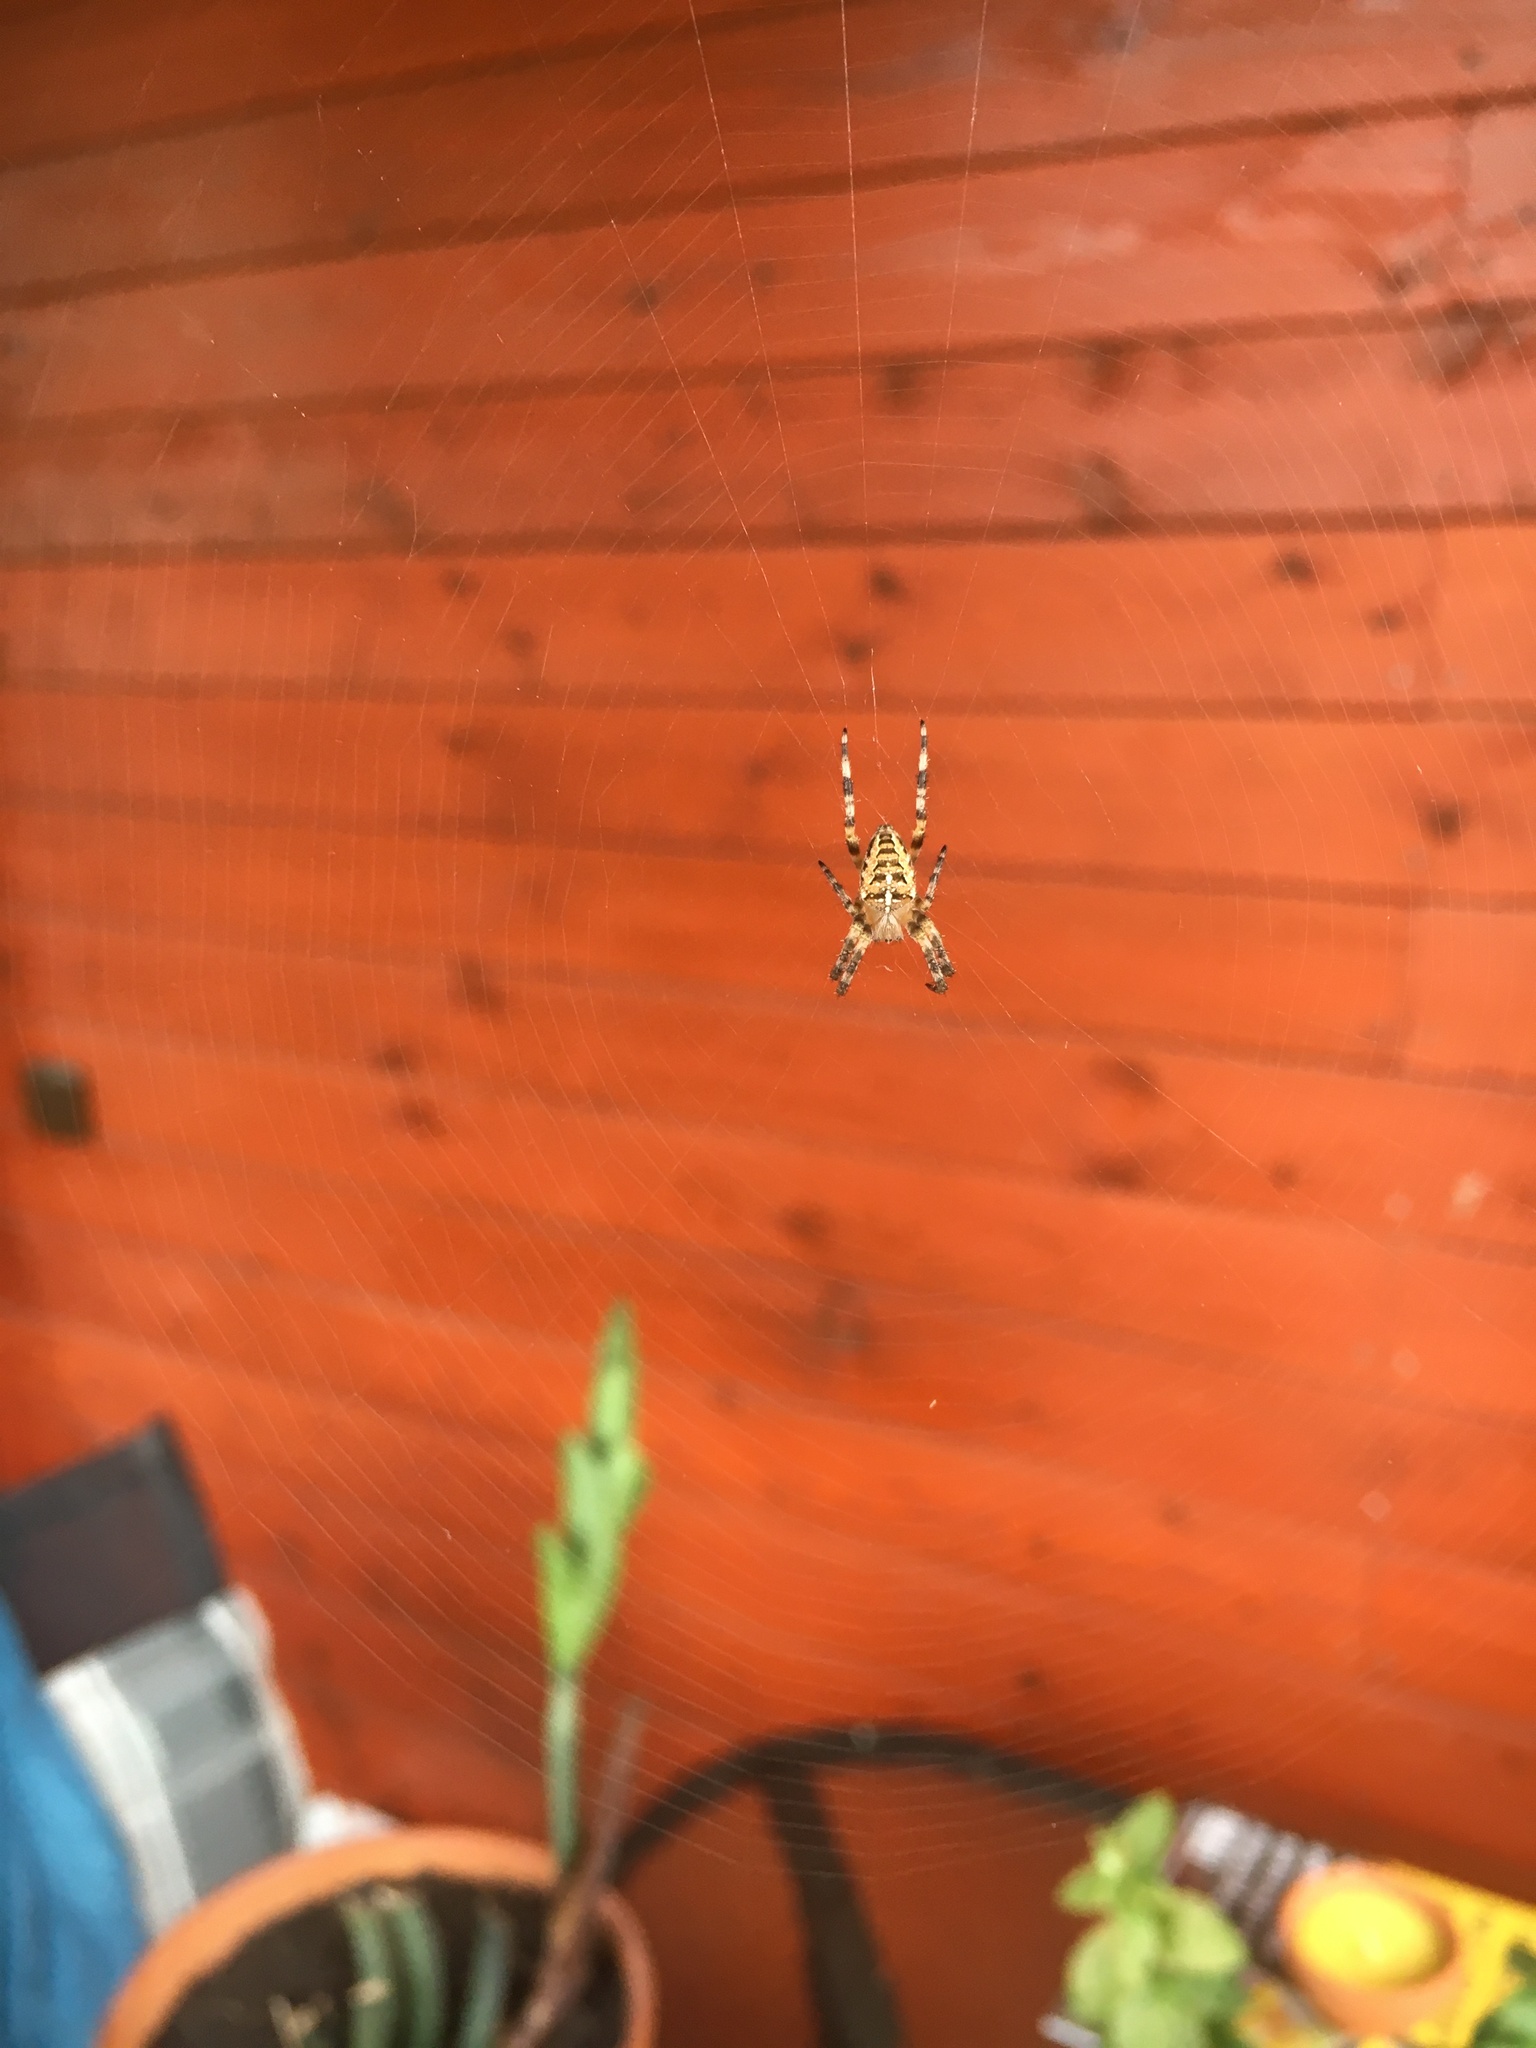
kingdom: Animalia
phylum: Arthropoda
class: Arachnida
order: Araneae
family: Araneidae
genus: Araneus
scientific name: Araneus diadematus
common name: Cross orbweaver
